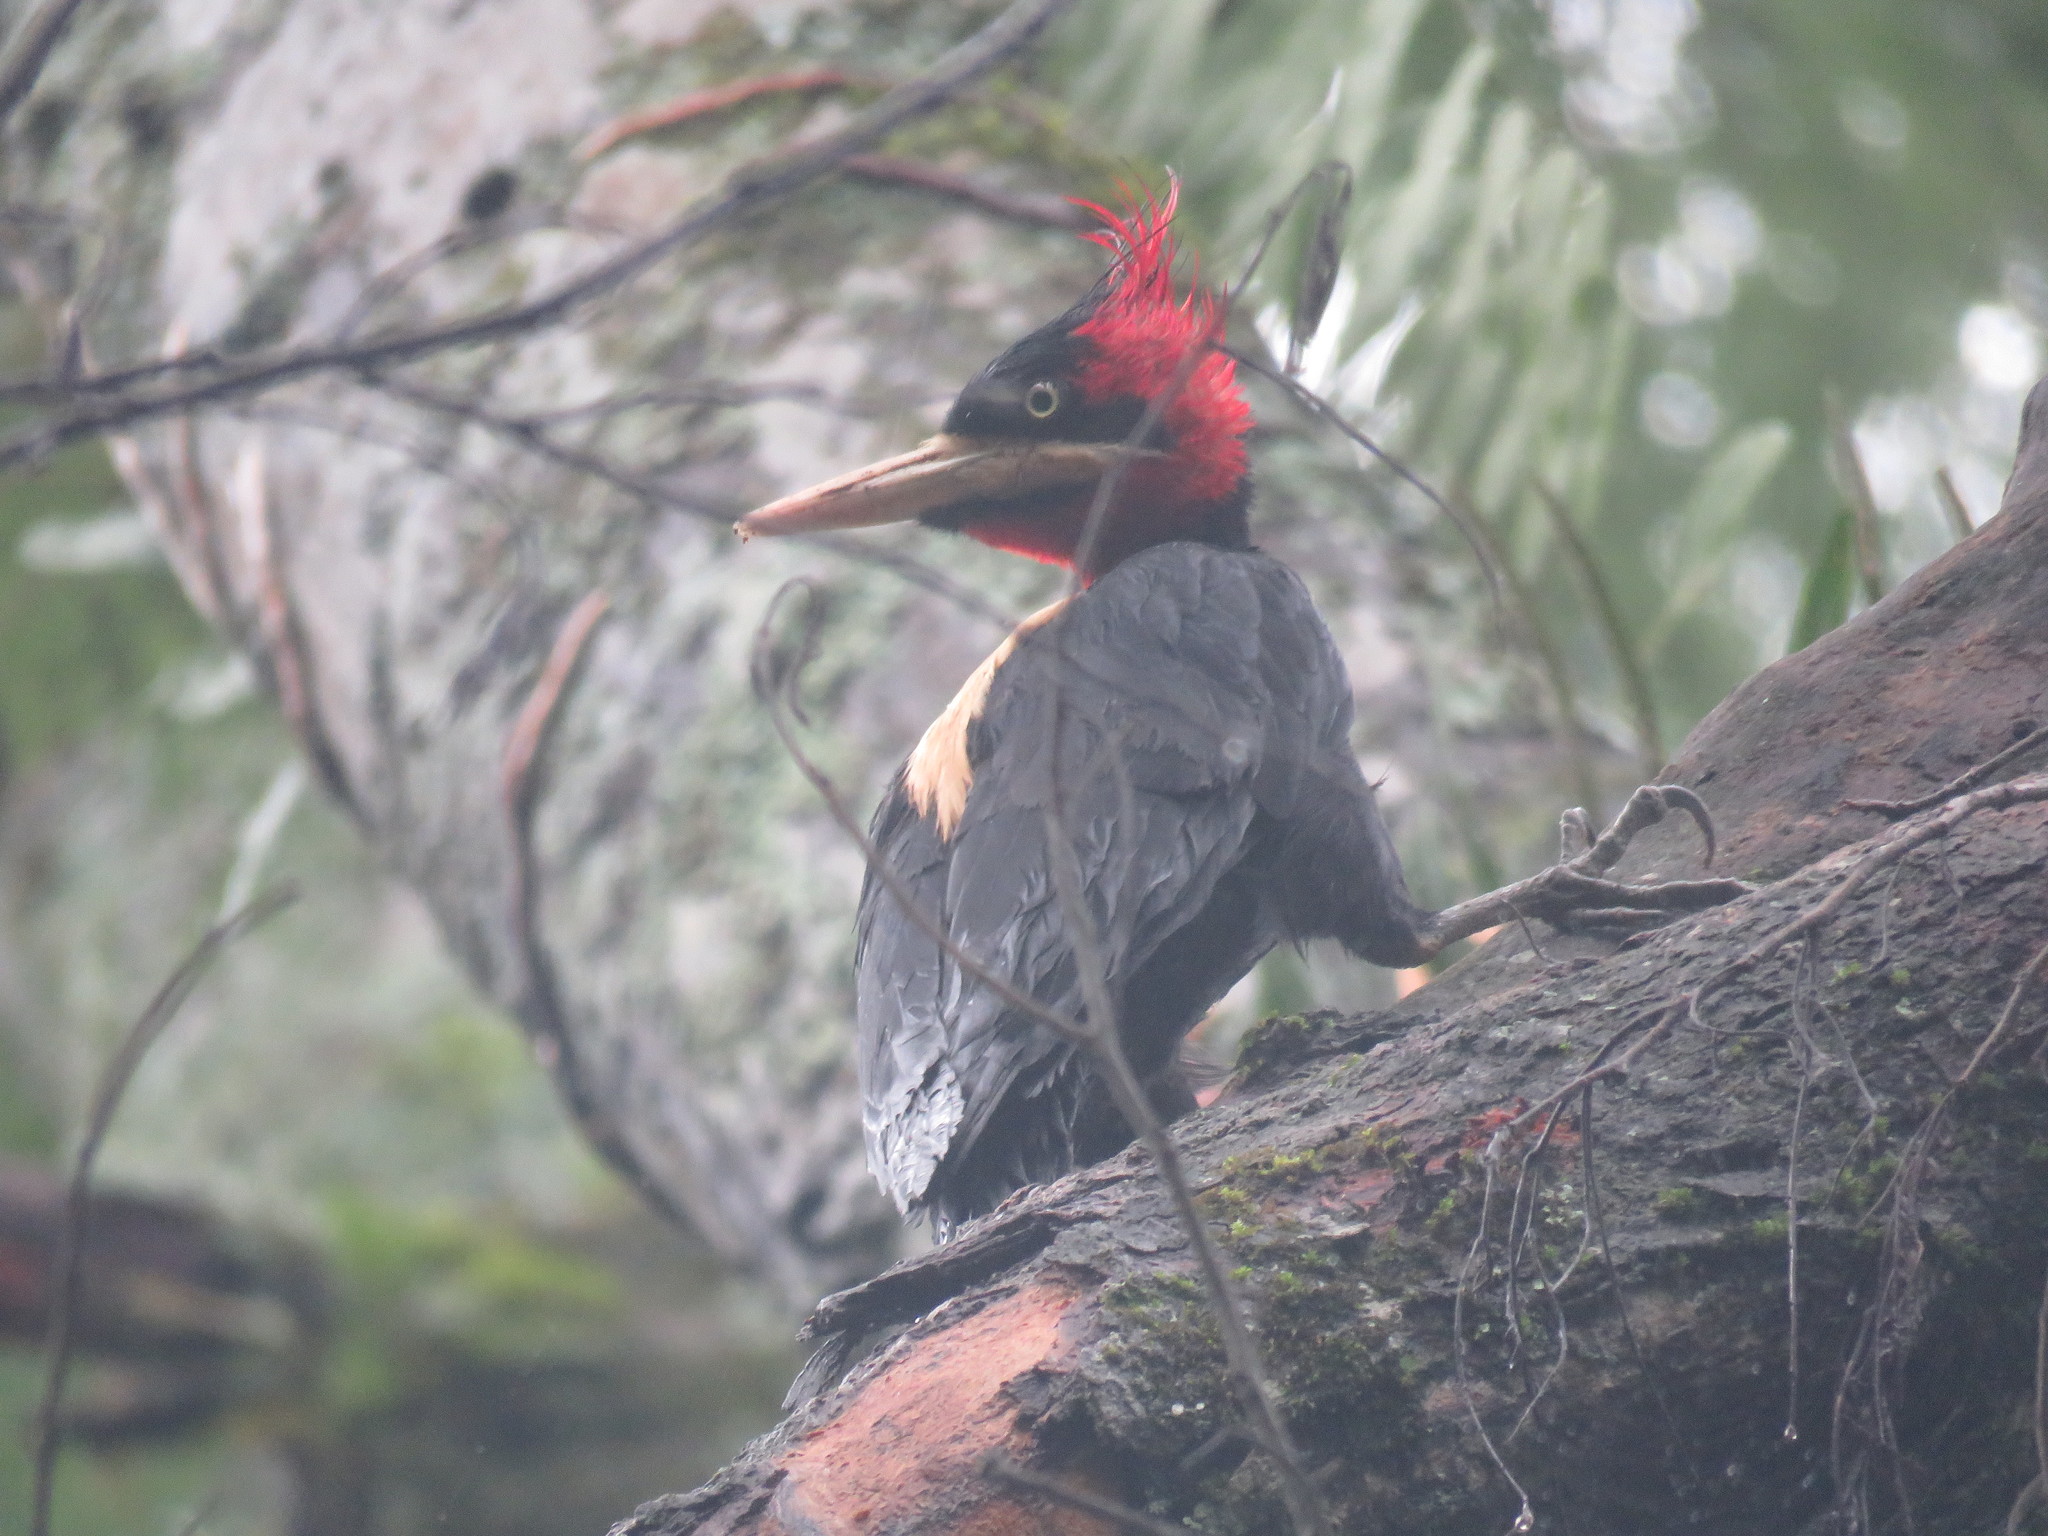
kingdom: Animalia
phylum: Chordata
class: Aves
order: Piciformes
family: Picidae
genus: Campephilus
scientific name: Campephilus leucopogon
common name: Cream-backed woodpecker
